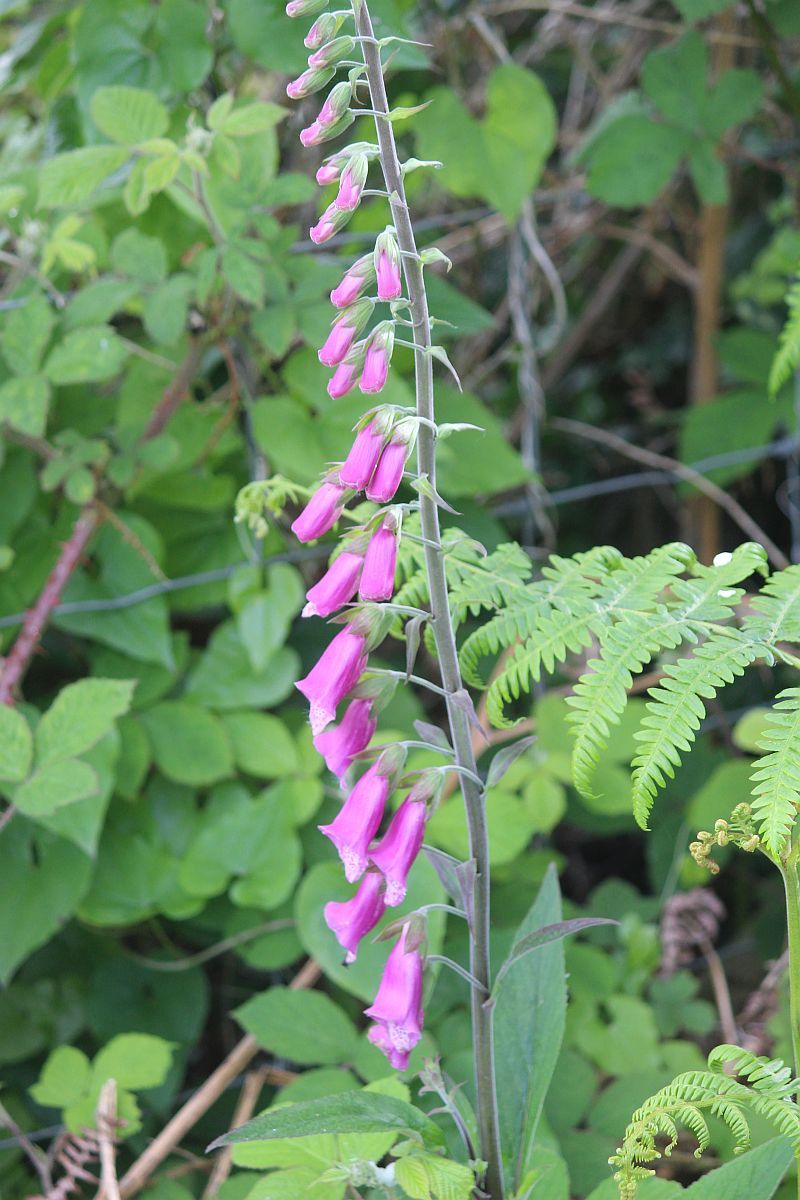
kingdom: Plantae
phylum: Tracheophyta
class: Magnoliopsida
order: Lamiales
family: Plantaginaceae
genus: Digitalis
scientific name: Digitalis purpurea
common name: Foxglove
